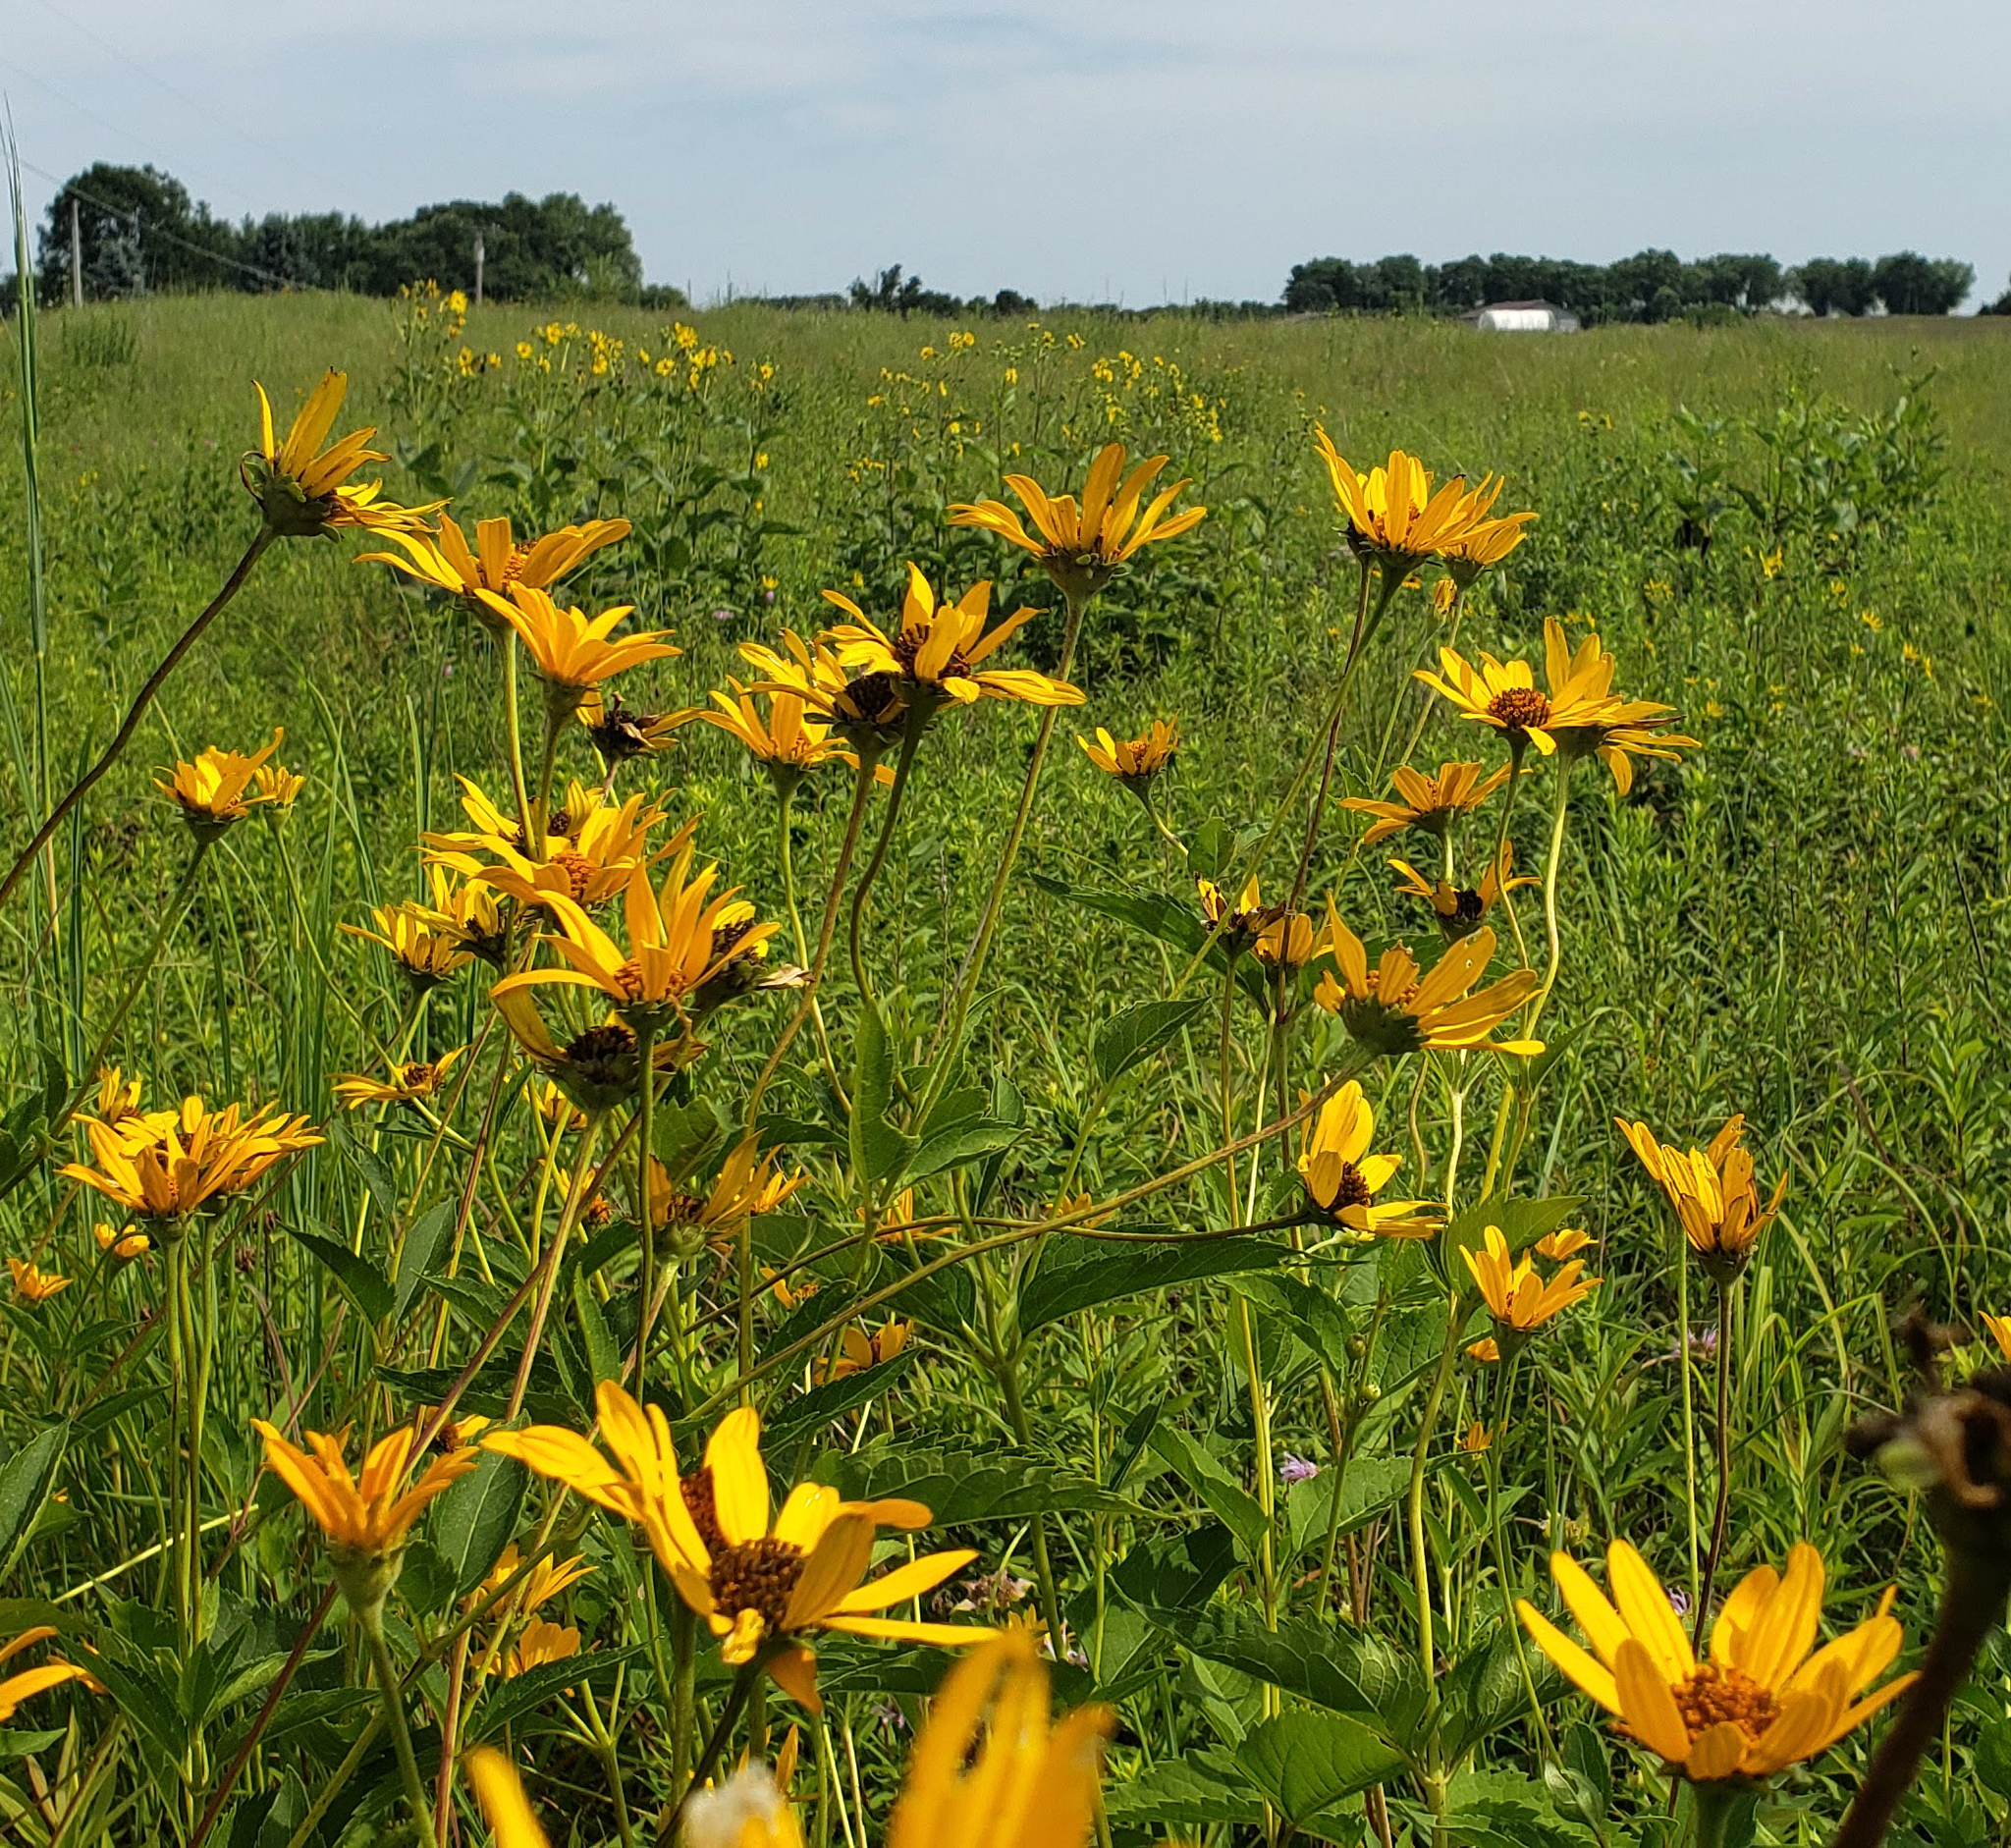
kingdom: Plantae
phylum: Tracheophyta
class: Magnoliopsida
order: Asterales
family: Asteraceae
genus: Heliopsis
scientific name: Heliopsis helianthoides
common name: False sunflower
